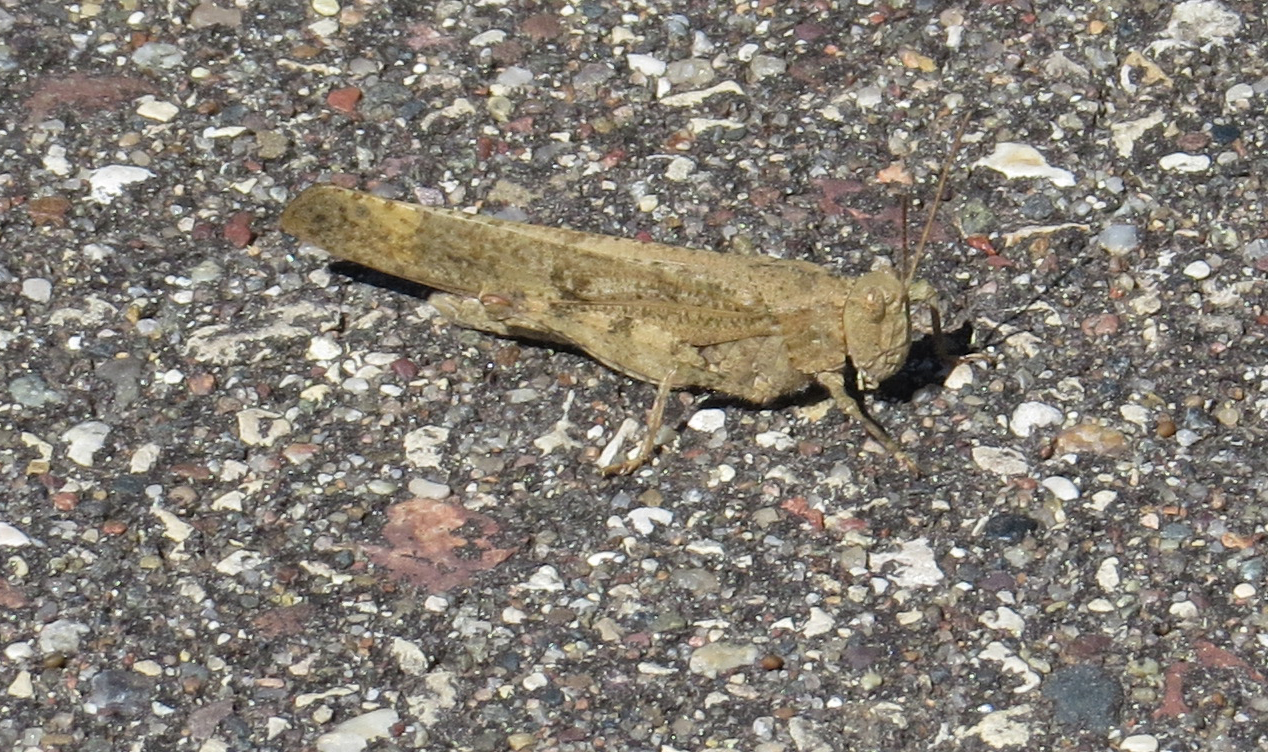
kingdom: Animalia
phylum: Arthropoda
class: Insecta
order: Orthoptera
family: Acrididae
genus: Dissosteira
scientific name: Dissosteira carolina
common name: Carolina grasshopper
